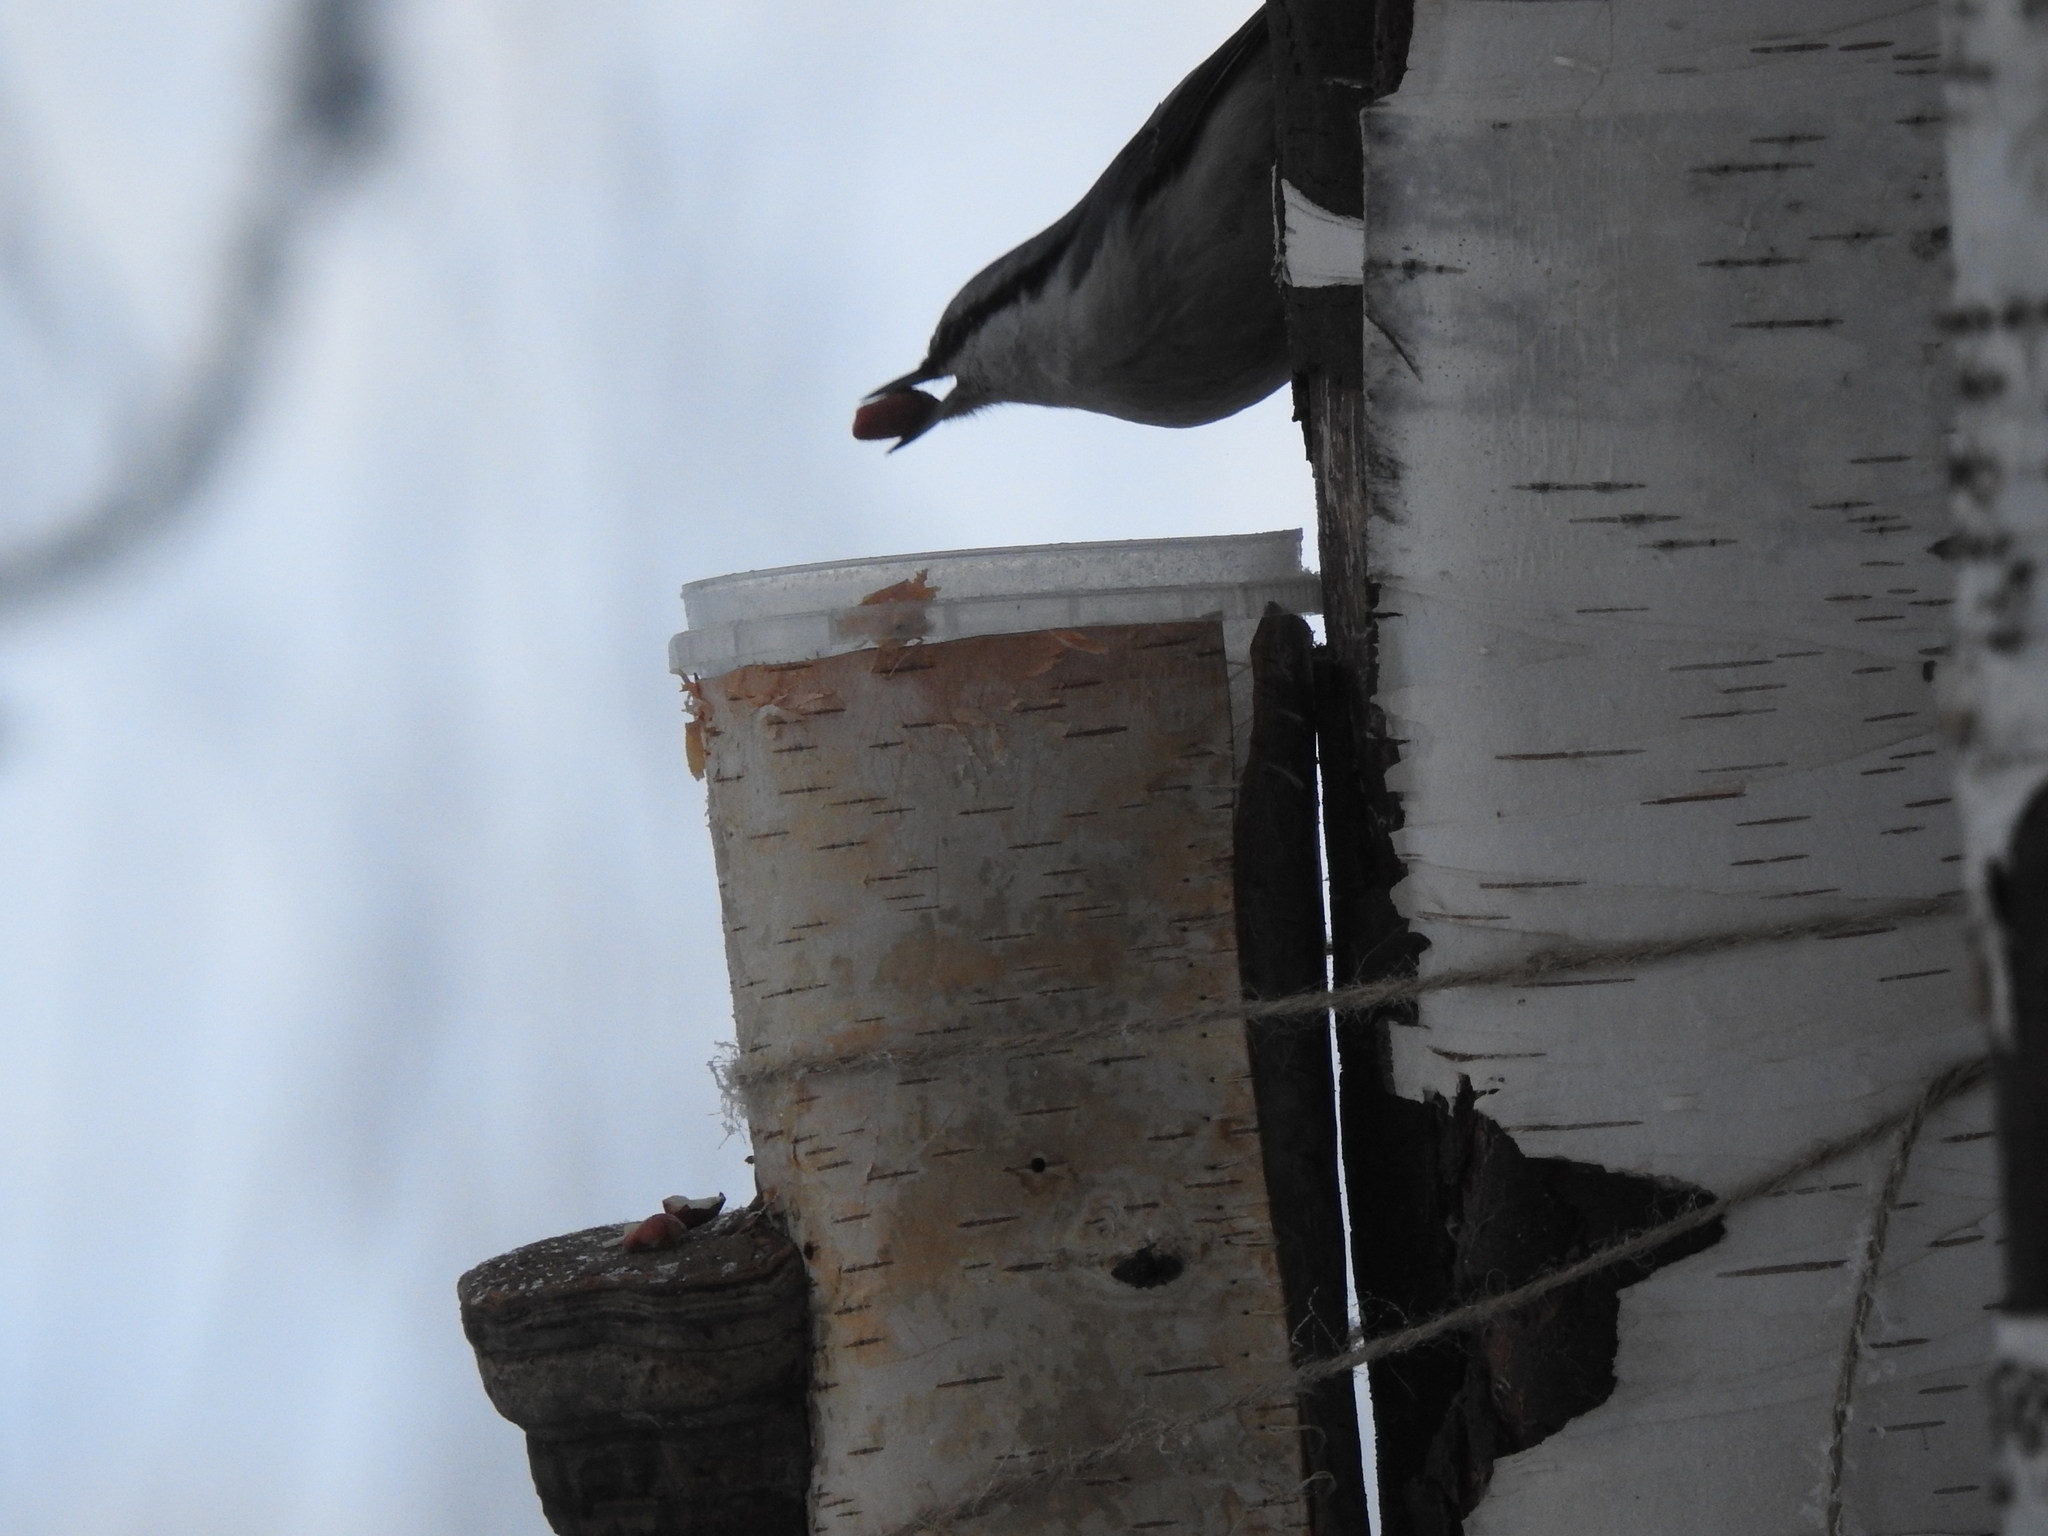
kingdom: Animalia
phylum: Chordata
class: Aves
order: Passeriformes
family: Sittidae
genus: Sitta
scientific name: Sitta europaea
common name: Eurasian nuthatch
